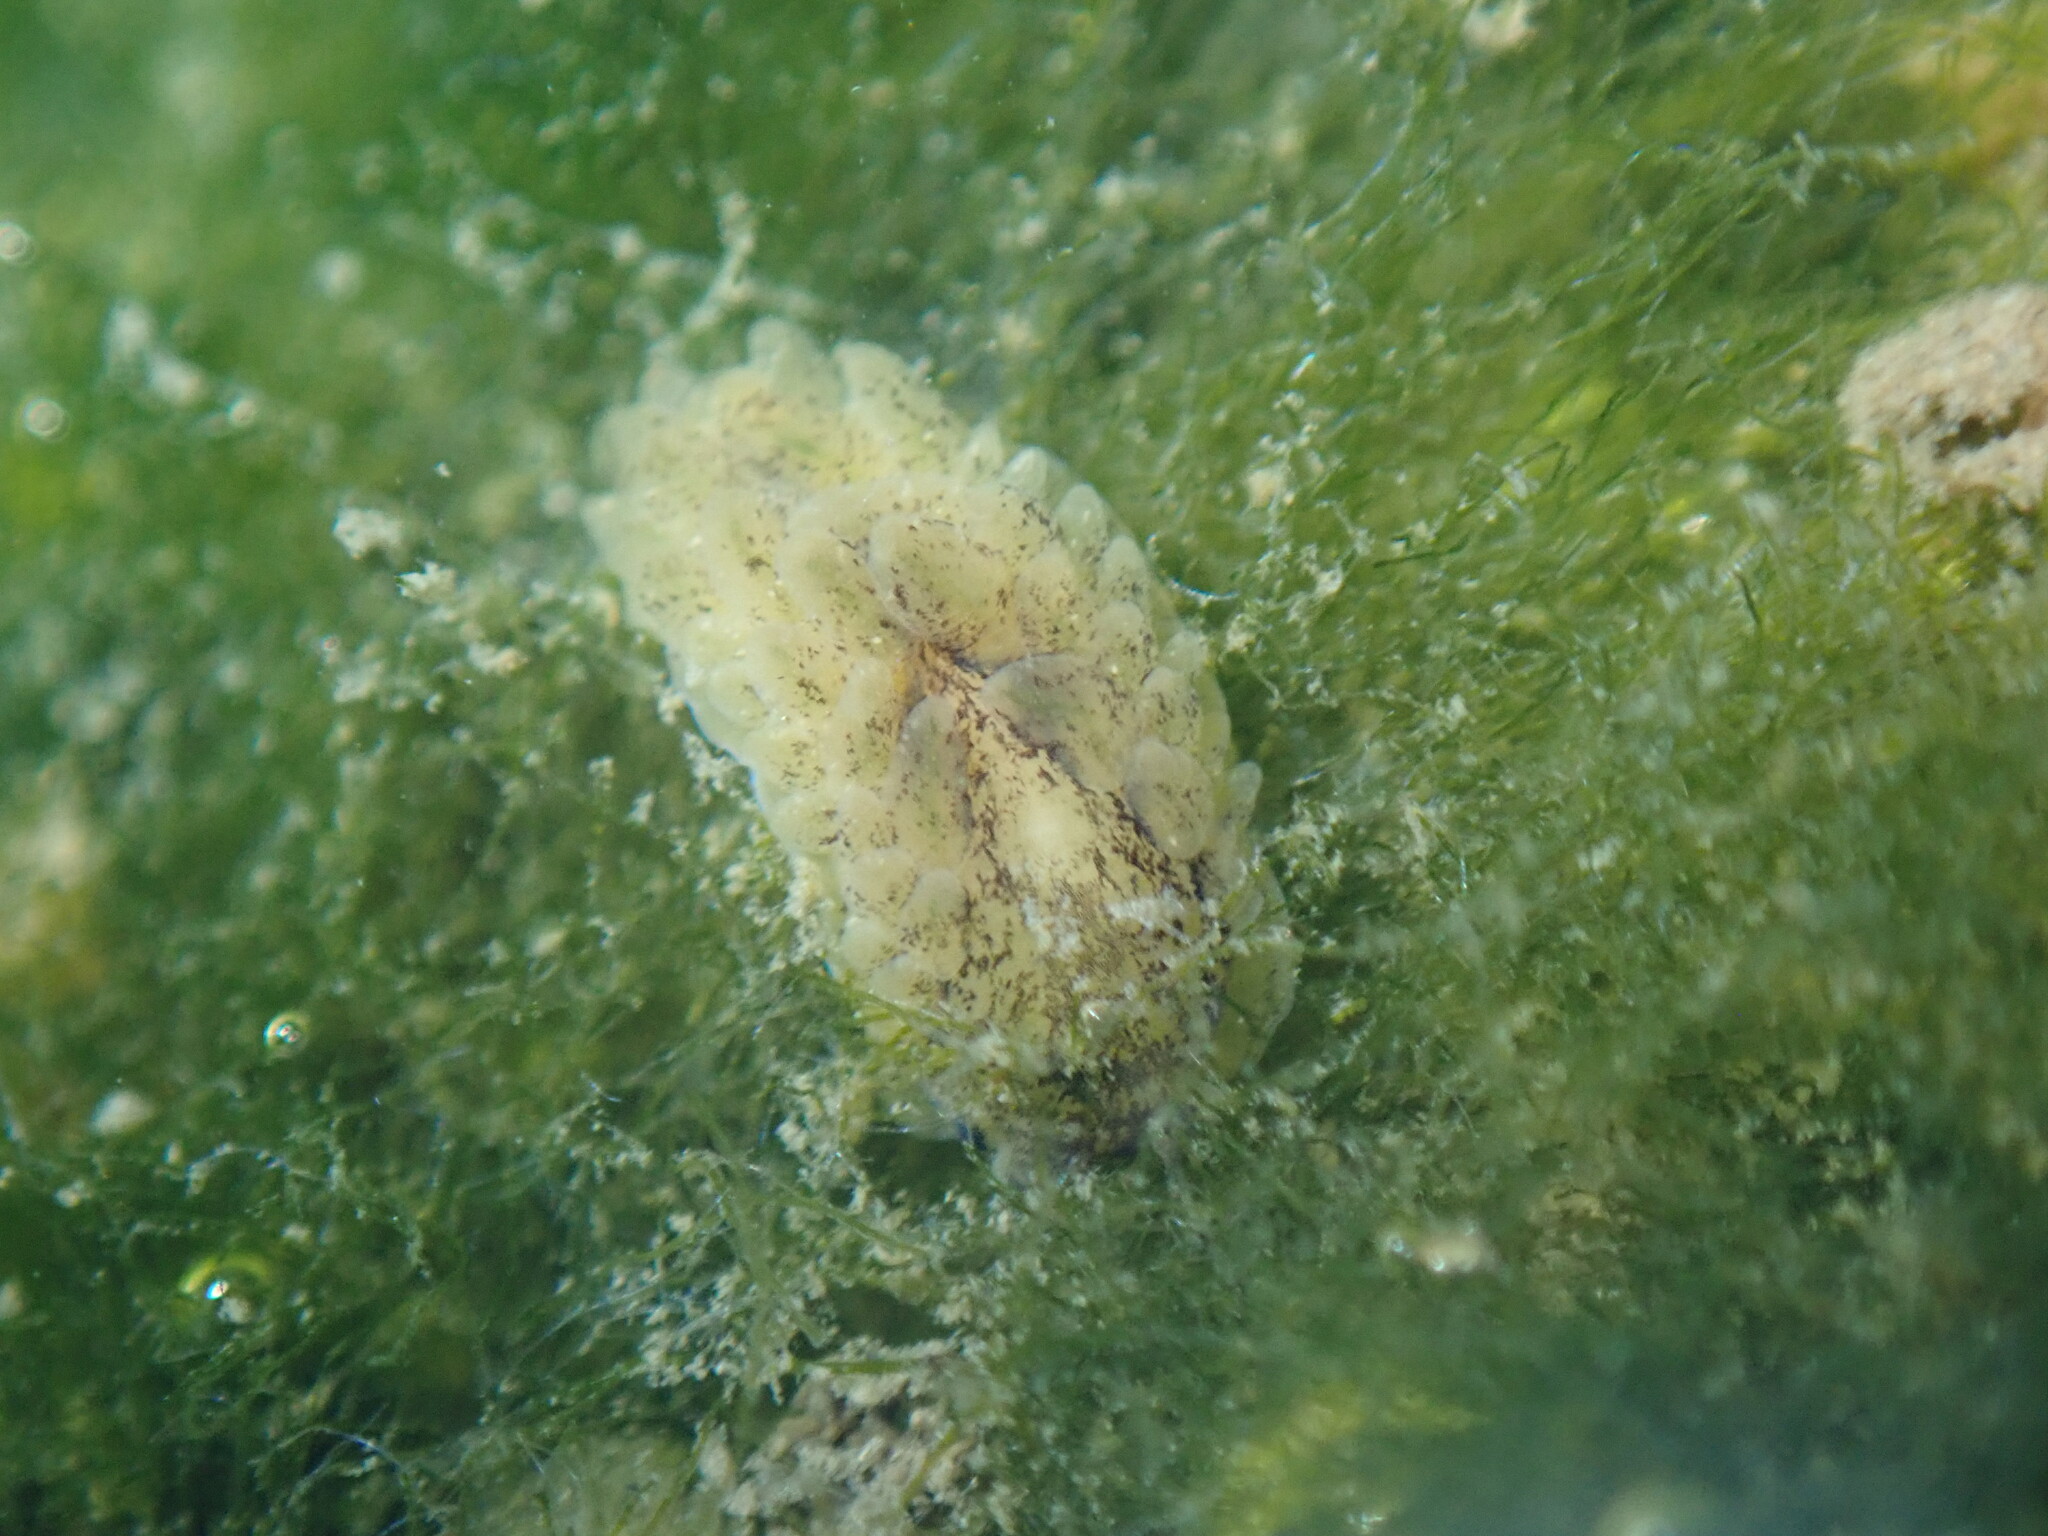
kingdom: Animalia
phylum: Mollusca
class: Gastropoda
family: Limapontiidae
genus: Alderia
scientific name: Alderia modesta
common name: Modest alderia
